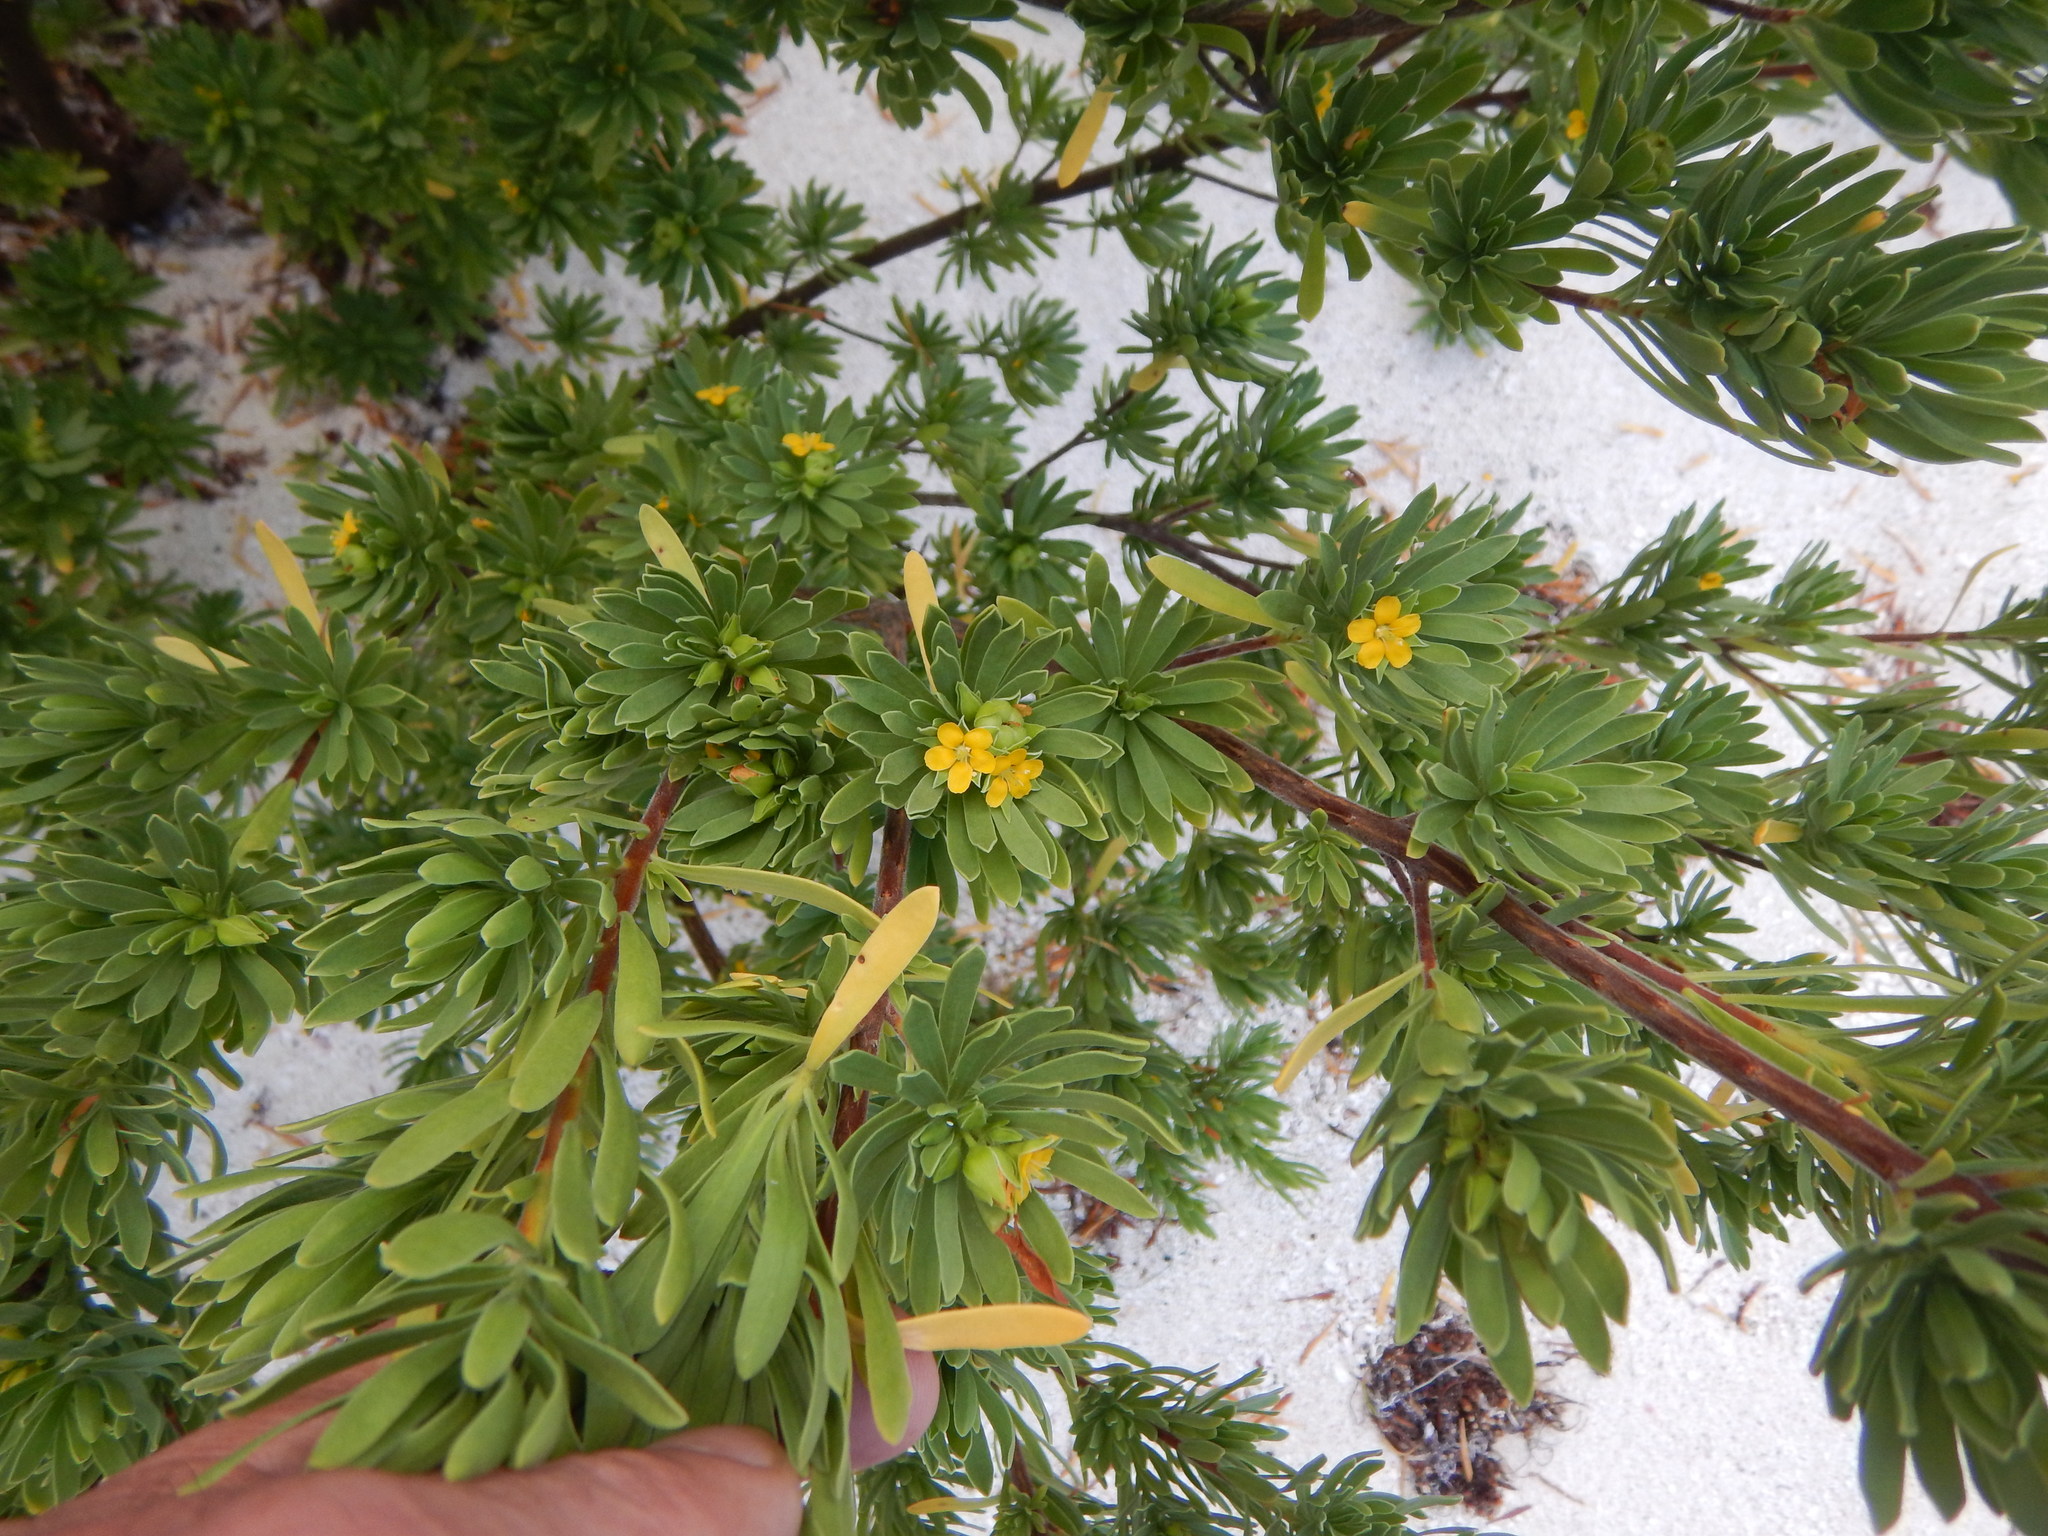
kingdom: Plantae
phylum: Tracheophyta
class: Magnoliopsida
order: Fabales
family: Surianaceae
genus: Suriana
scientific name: Suriana maritima
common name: Bay-cedar
